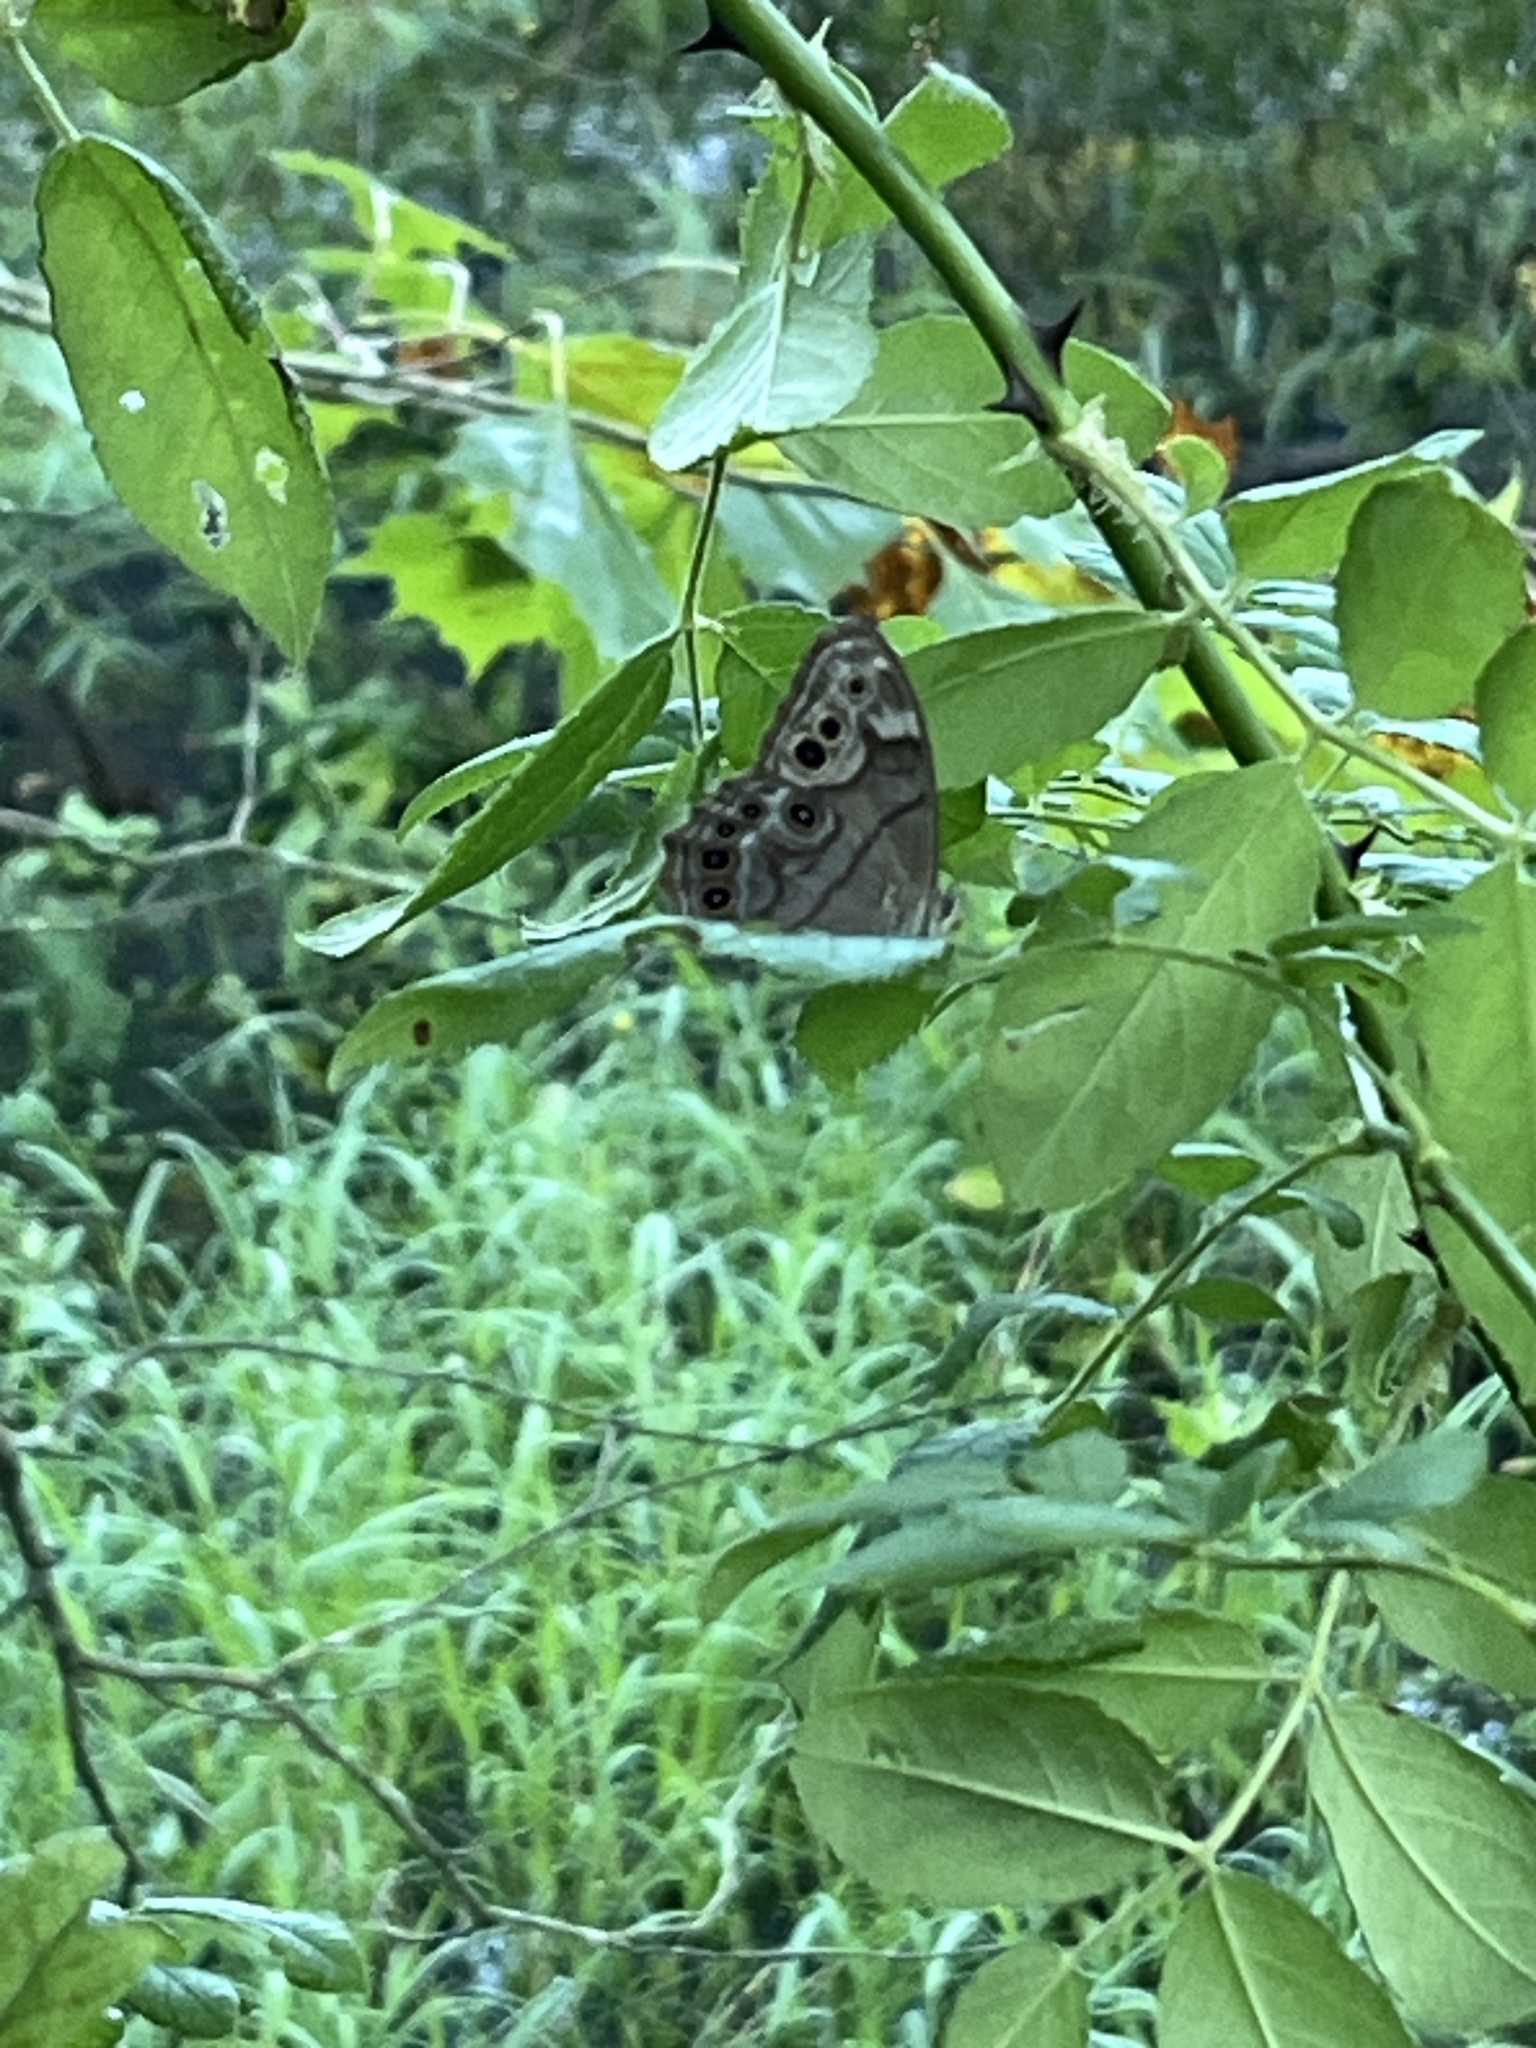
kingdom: Animalia
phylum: Arthropoda
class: Insecta
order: Lepidoptera
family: Nymphalidae
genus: Enodia
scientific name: Enodia
